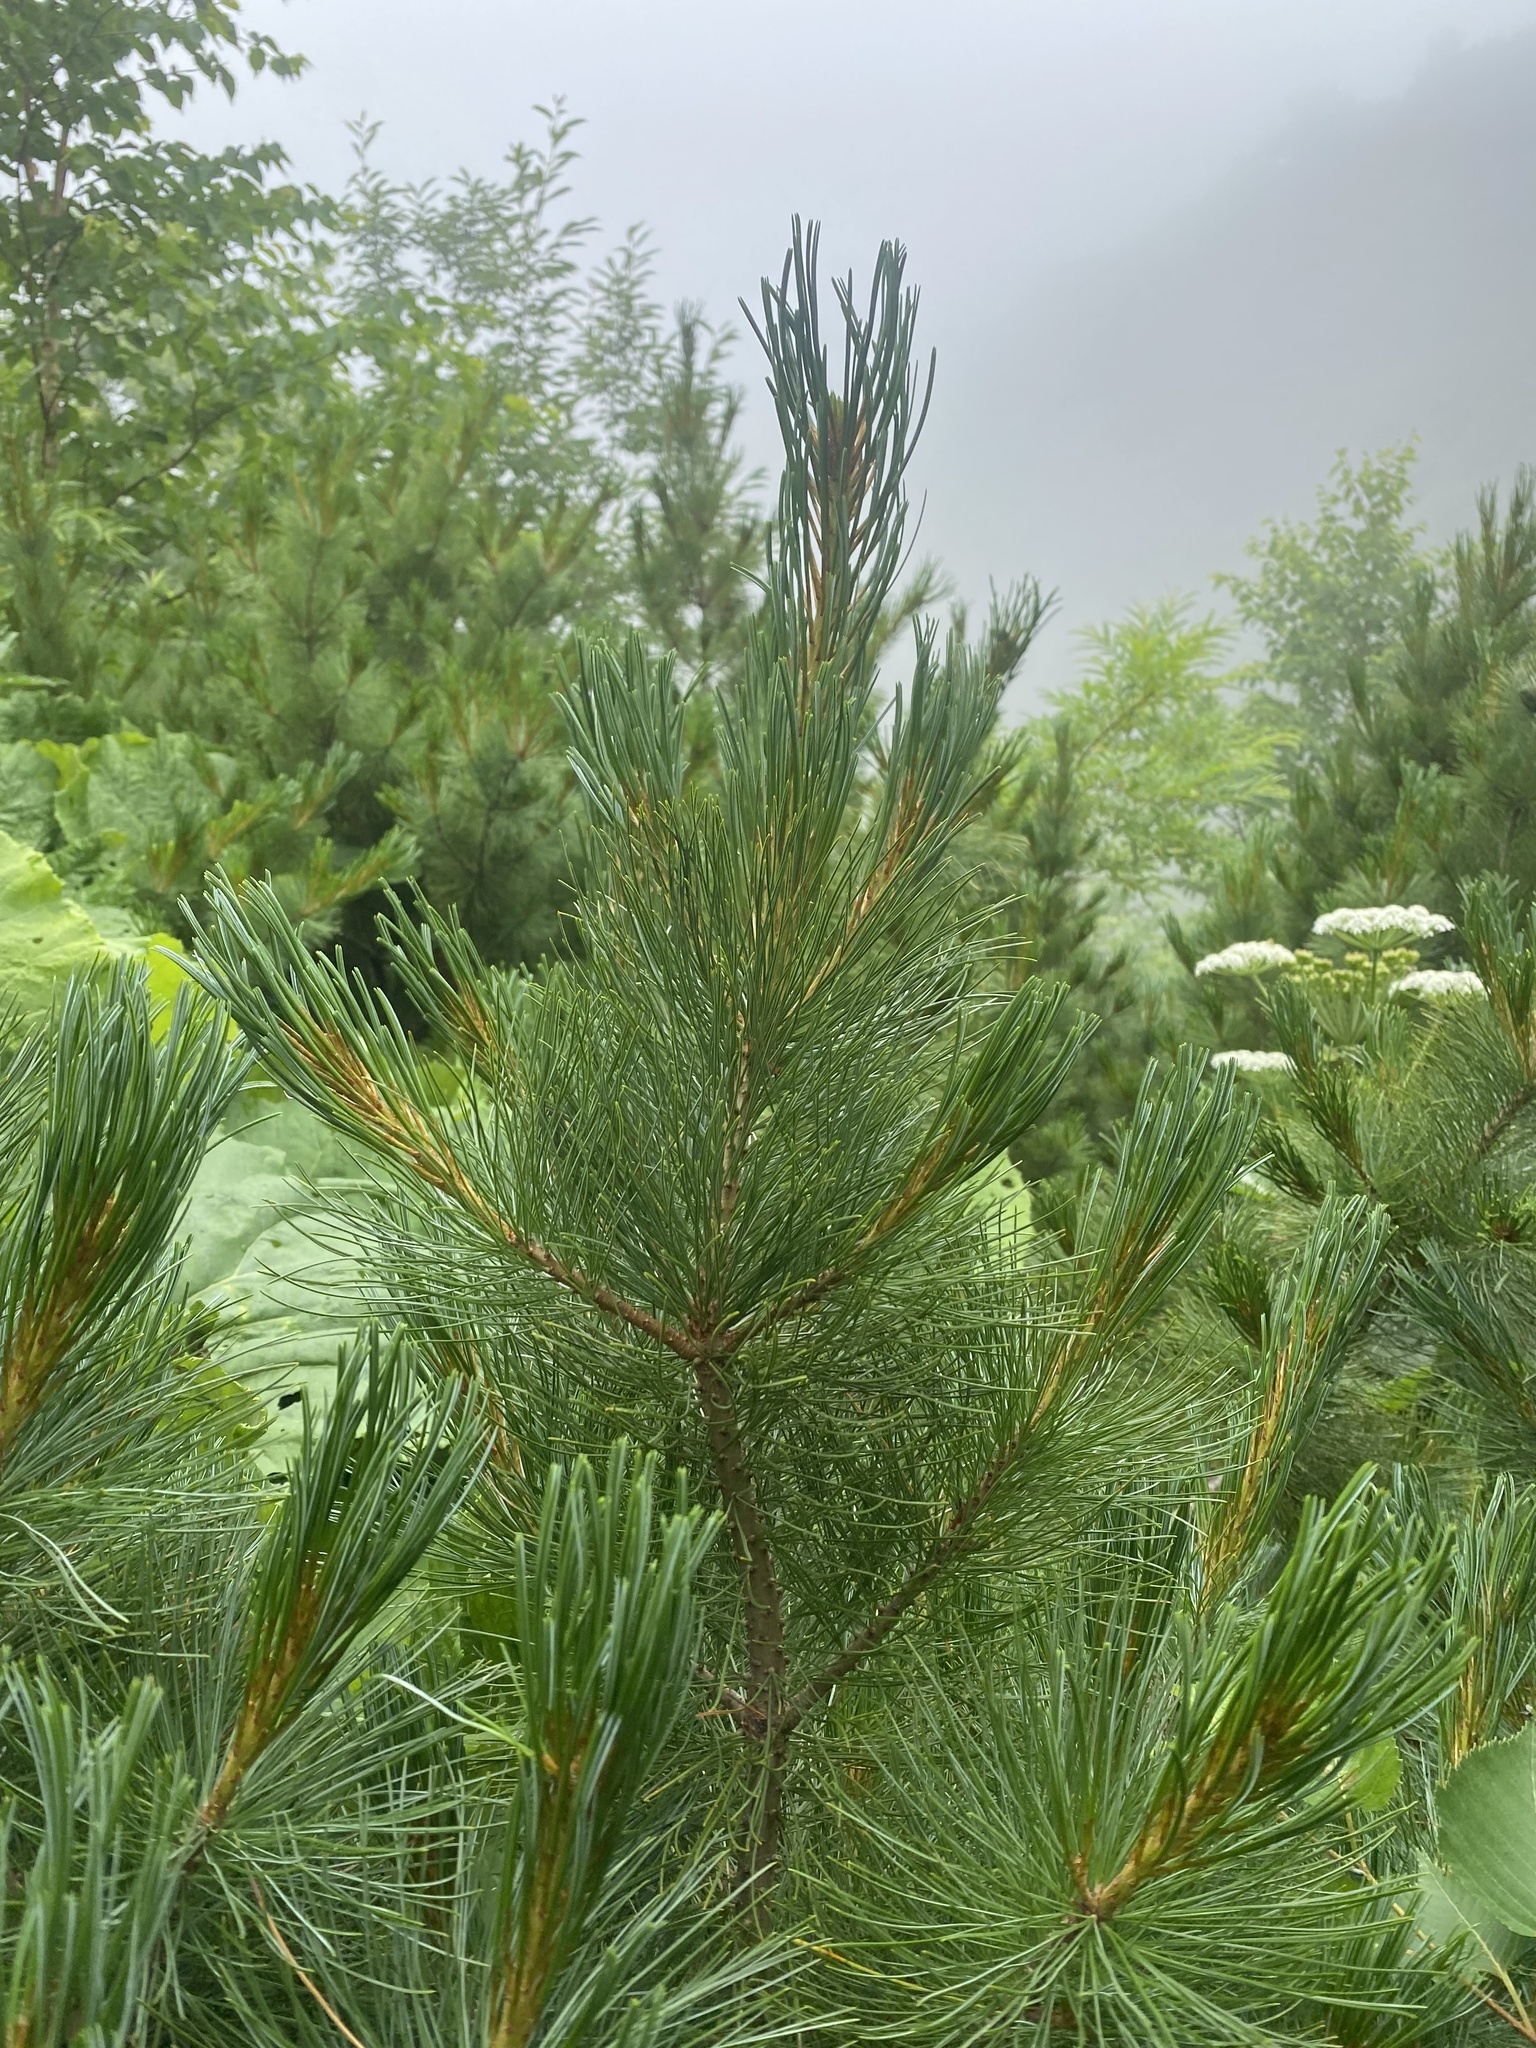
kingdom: Plantae
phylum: Tracheophyta
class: Pinopsida
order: Pinales
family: Pinaceae
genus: Pinus
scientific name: Pinus pumila
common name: Dwarf siberian pine
